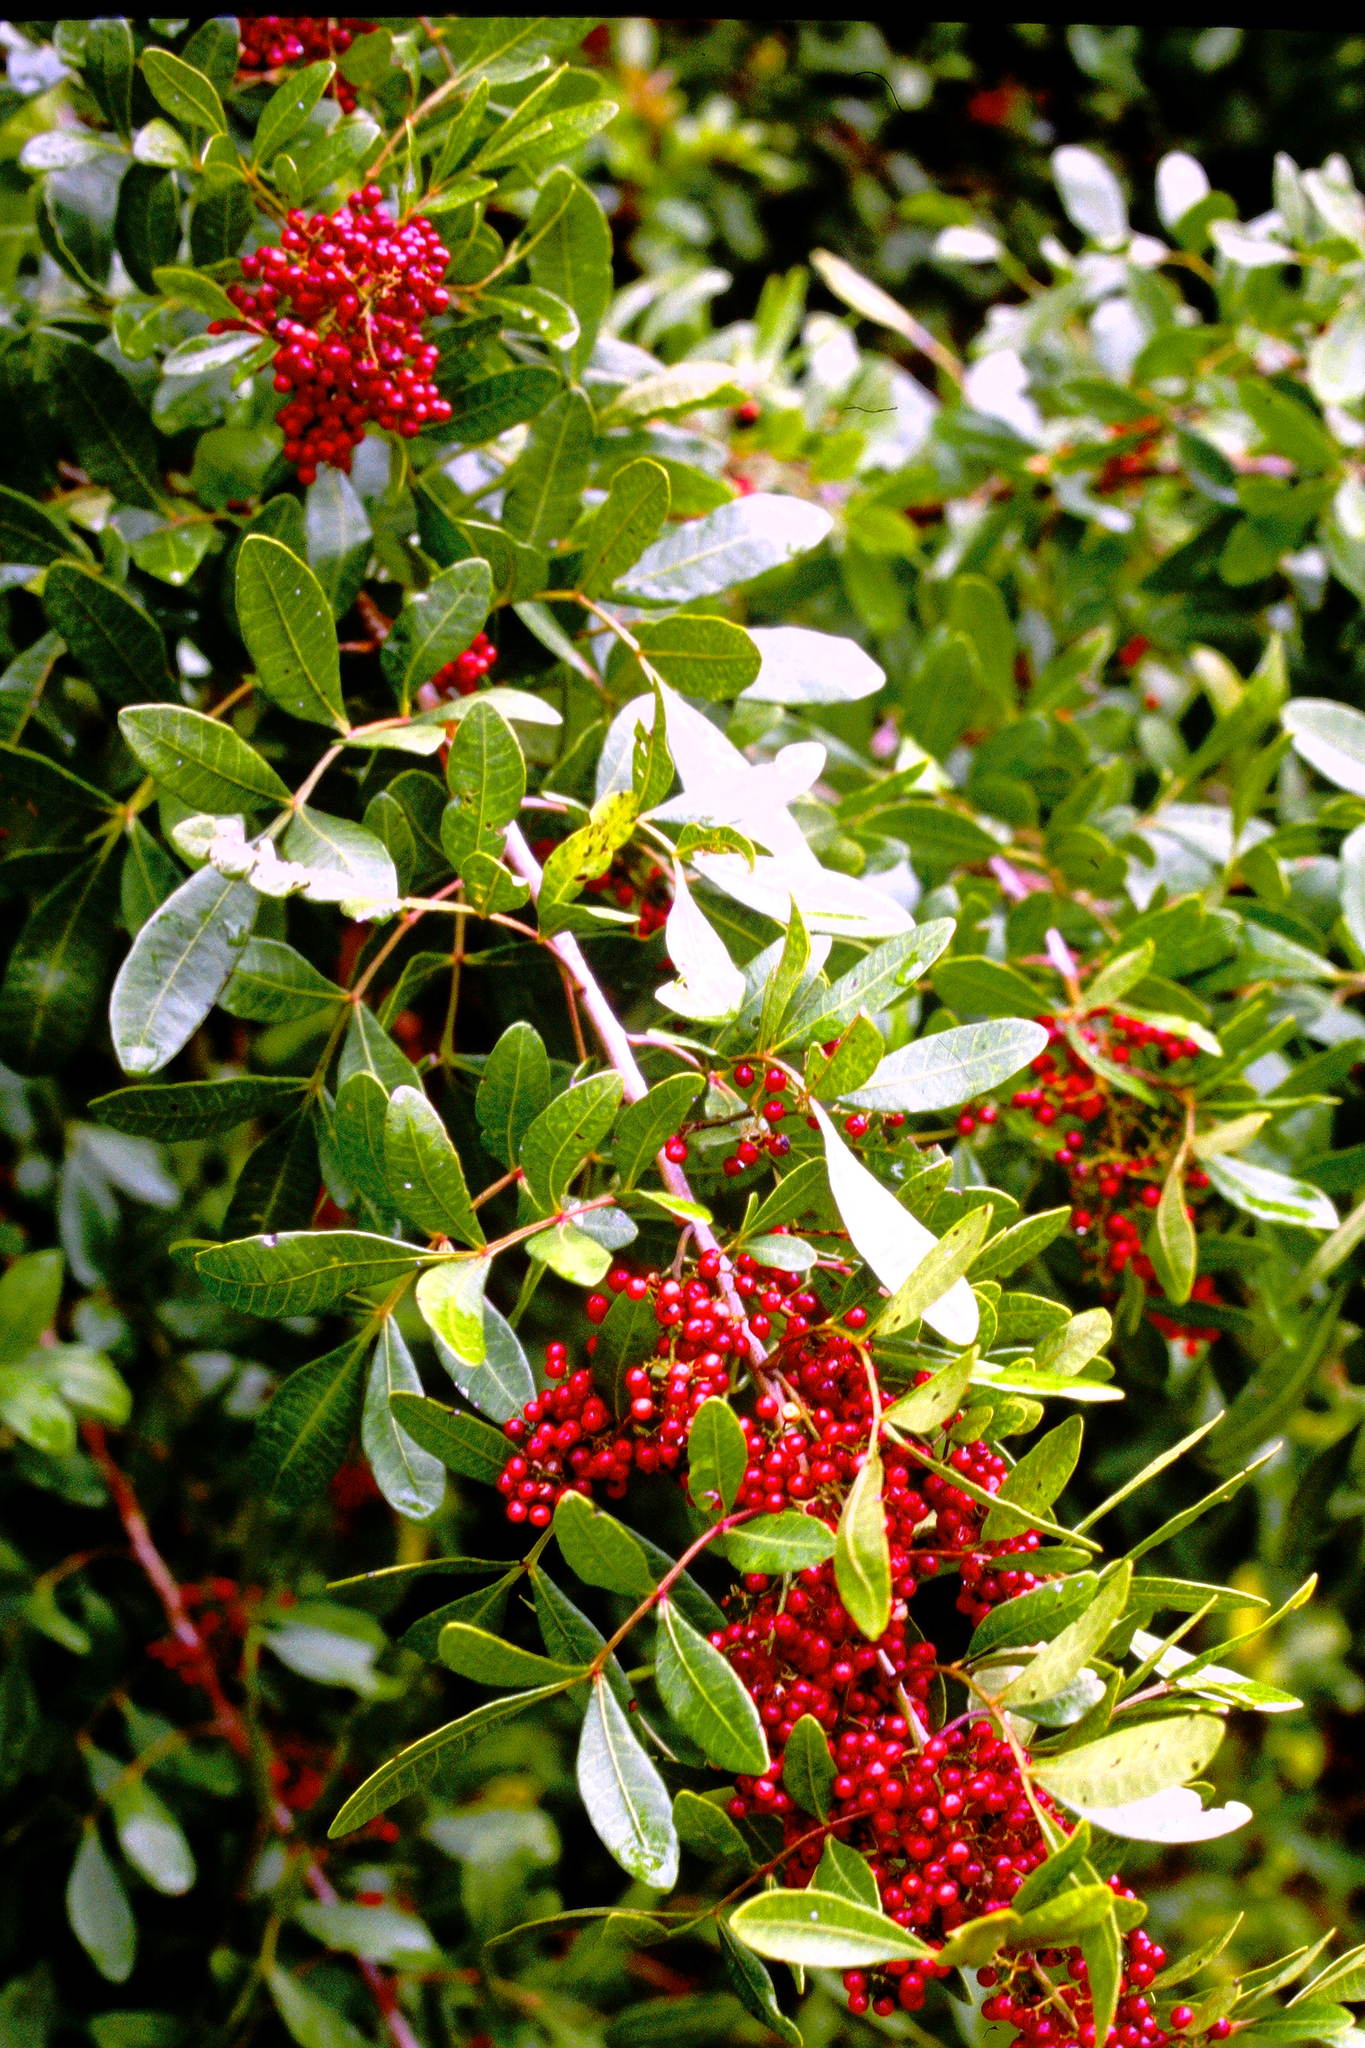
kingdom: Plantae
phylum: Tracheophyta
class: Magnoliopsida
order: Sapindales
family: Anacardiaceae
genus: Schinus
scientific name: Schinus terebinthifolia
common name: Brazilian peppertree
